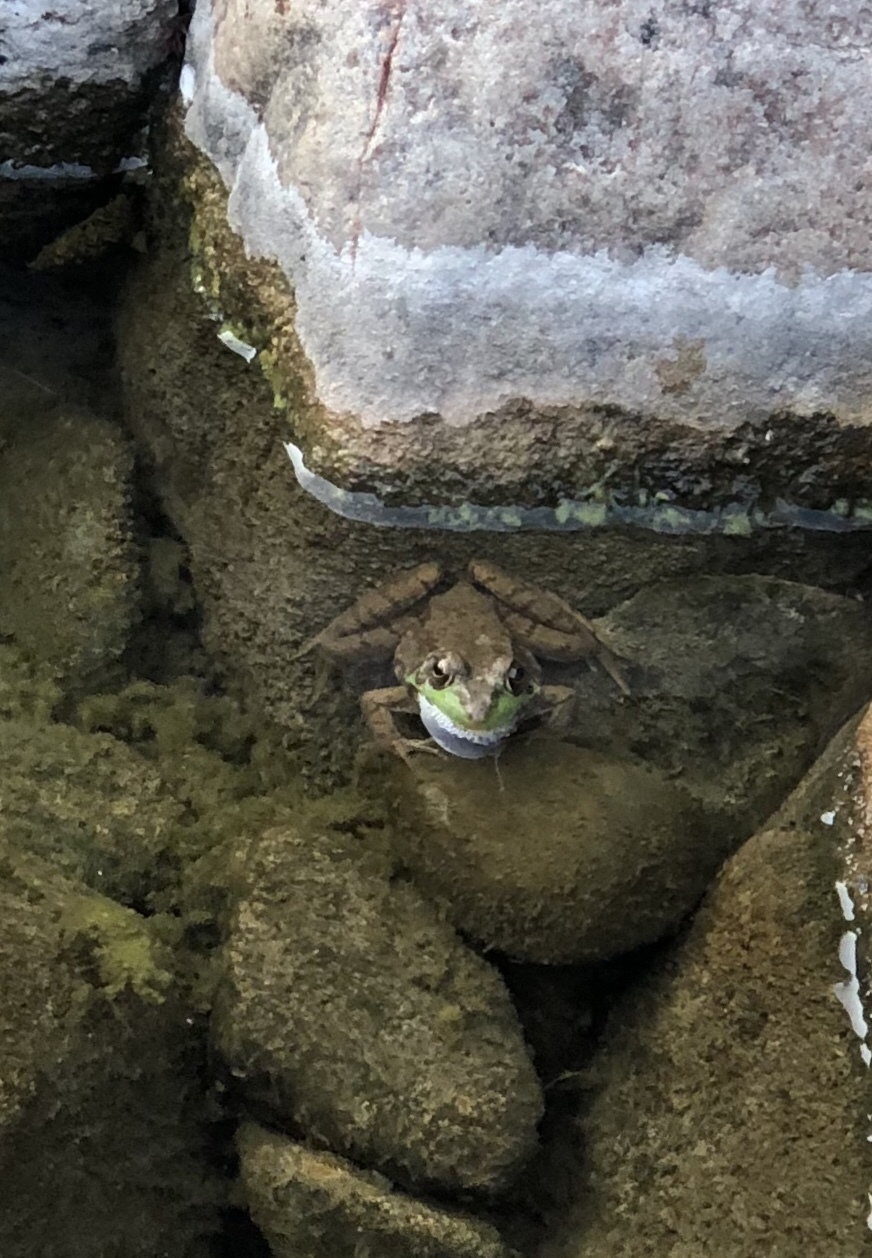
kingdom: Animalia
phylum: Chordata
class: Amphibia
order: Anura
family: Ranidae
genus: Lithobates
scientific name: Lithobates clamitans
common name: Green frog
